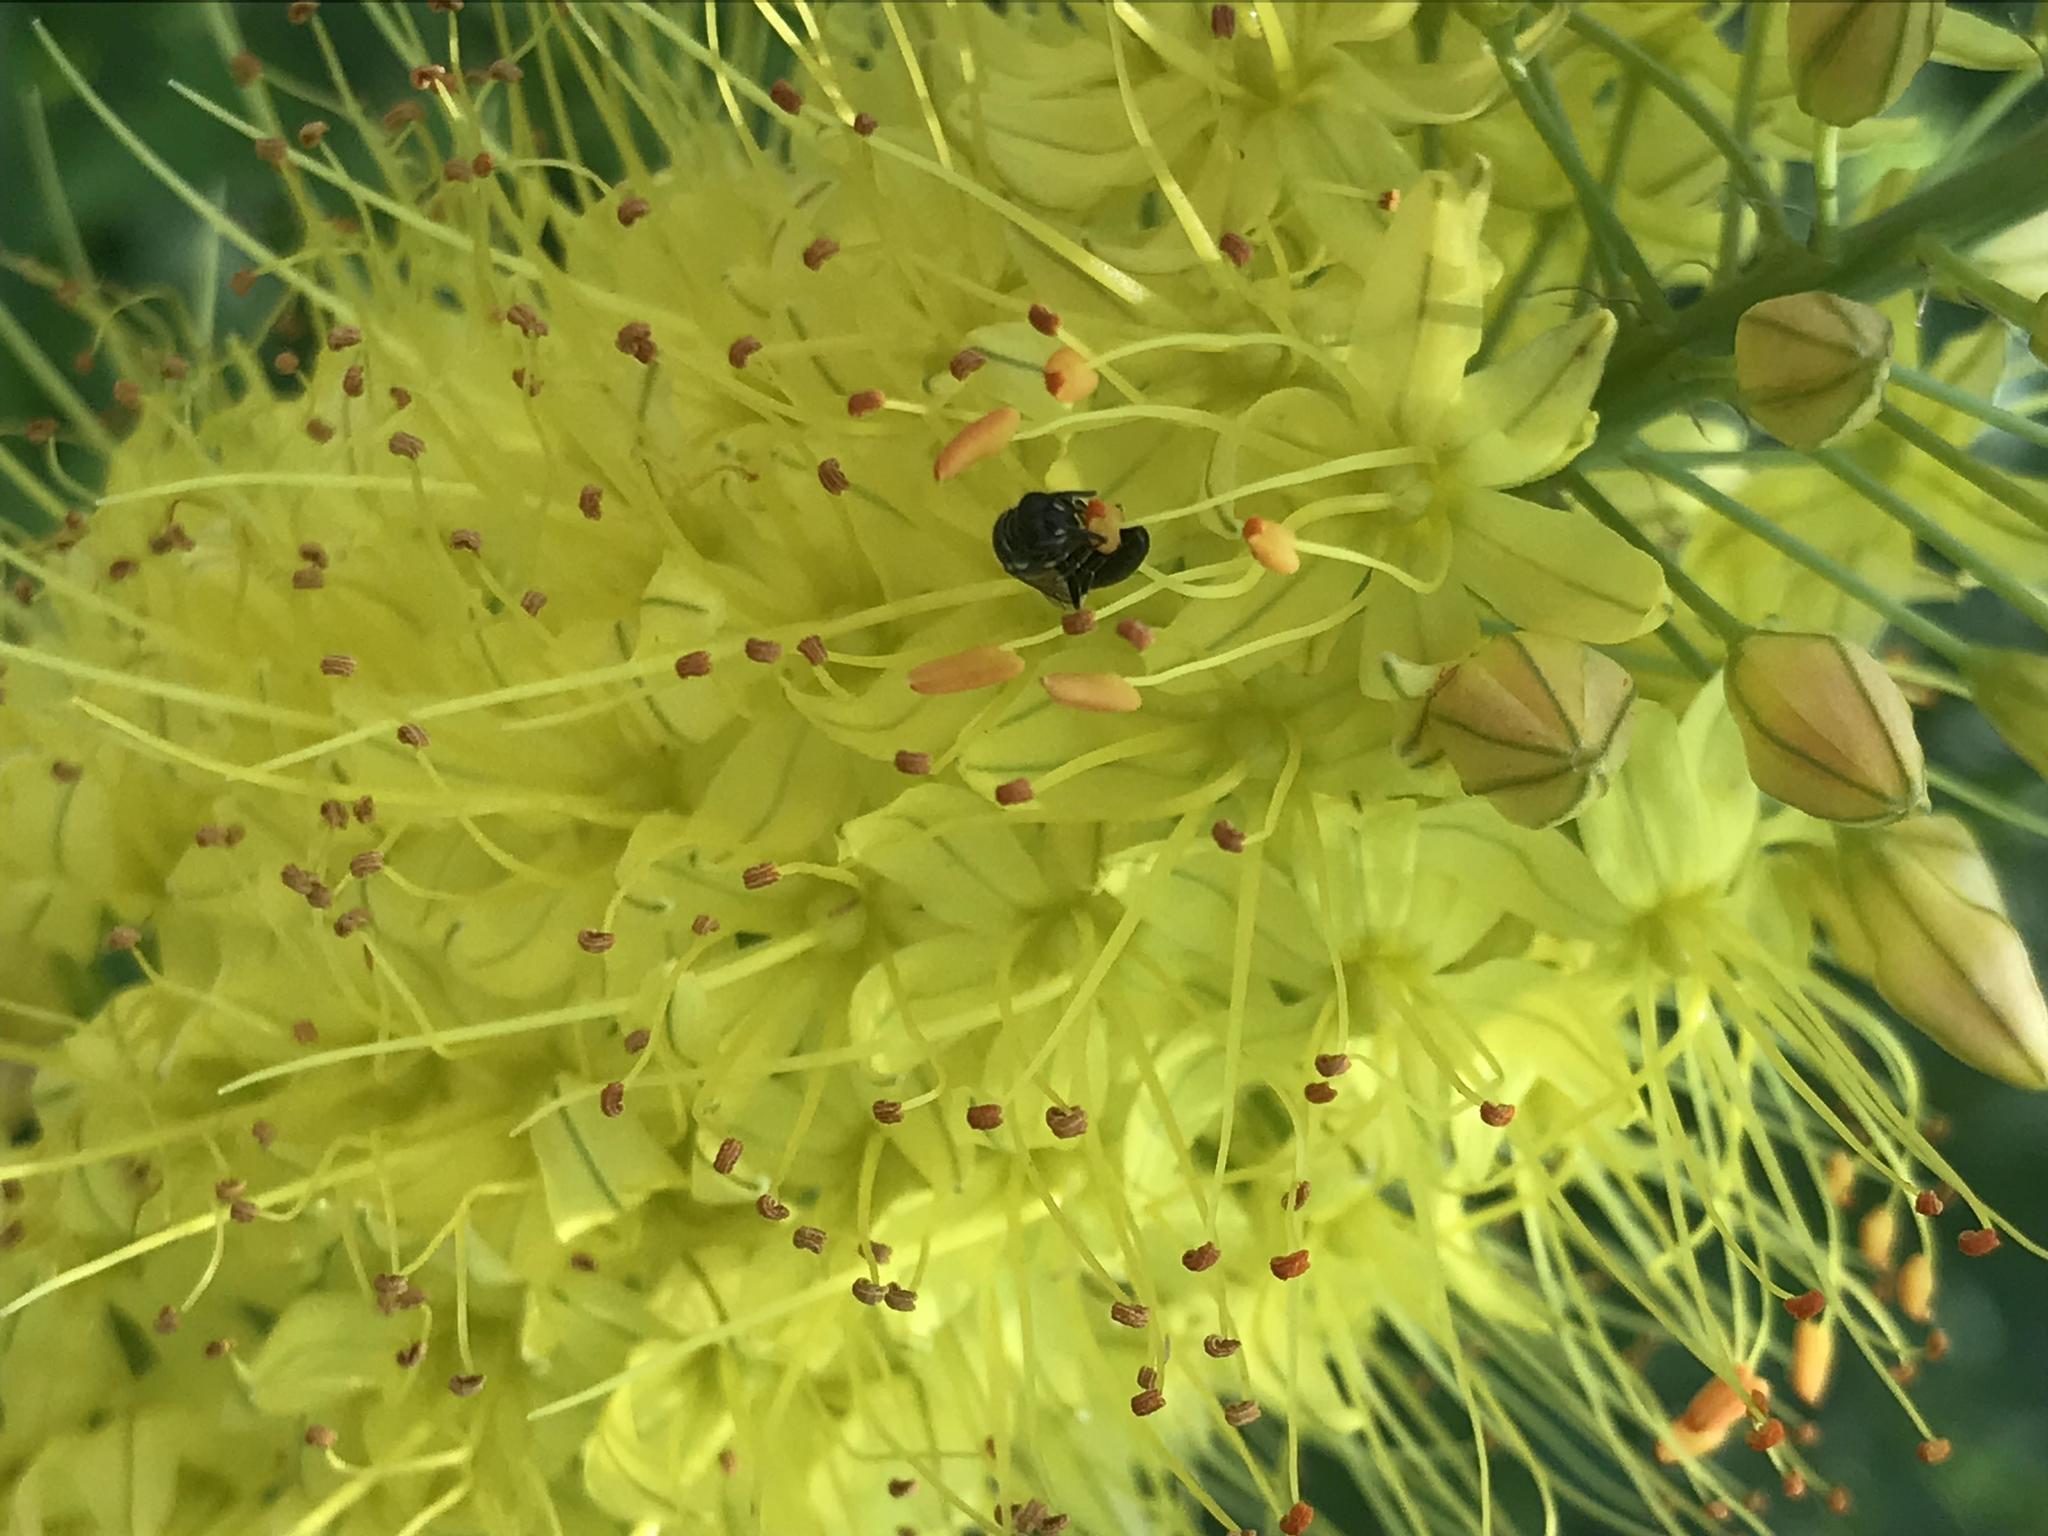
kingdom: Animalia
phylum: Arthropoda
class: Insecta
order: Hymenoptera
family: Colletidae
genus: Hylaeus
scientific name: Hylaeus
